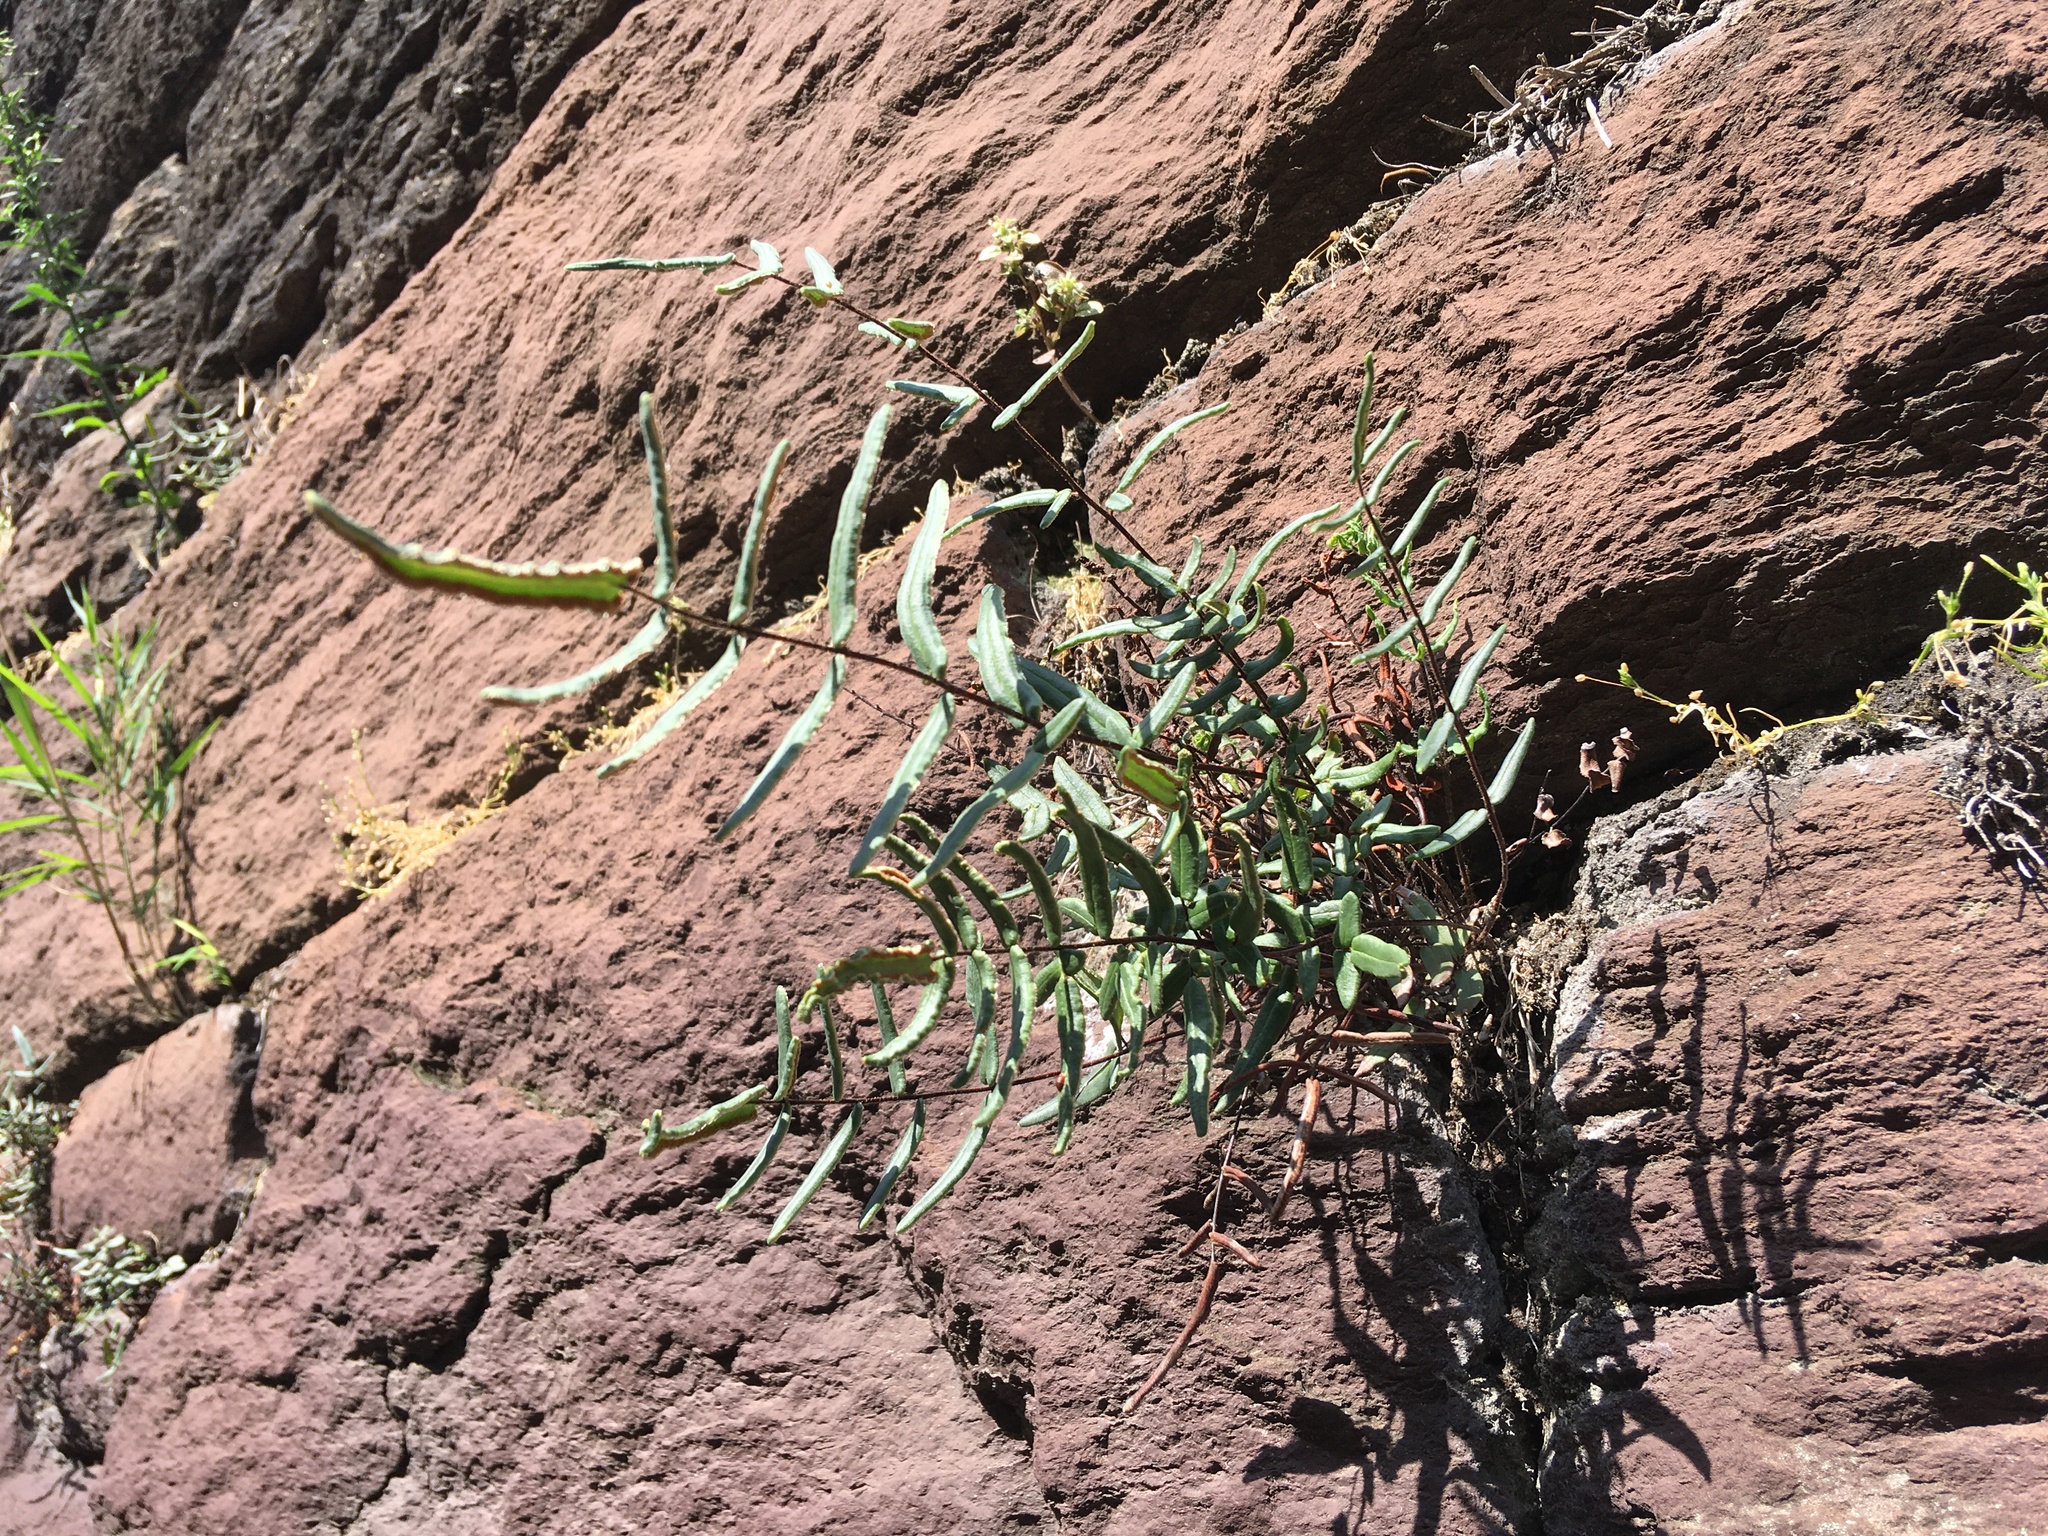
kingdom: Plantae
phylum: Tracheophyta
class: Polypodiopsida
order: Polypodiales
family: Pteridaceae
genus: Pellaea
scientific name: Pellaea atropurpurea
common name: Hairy cliffbrake
